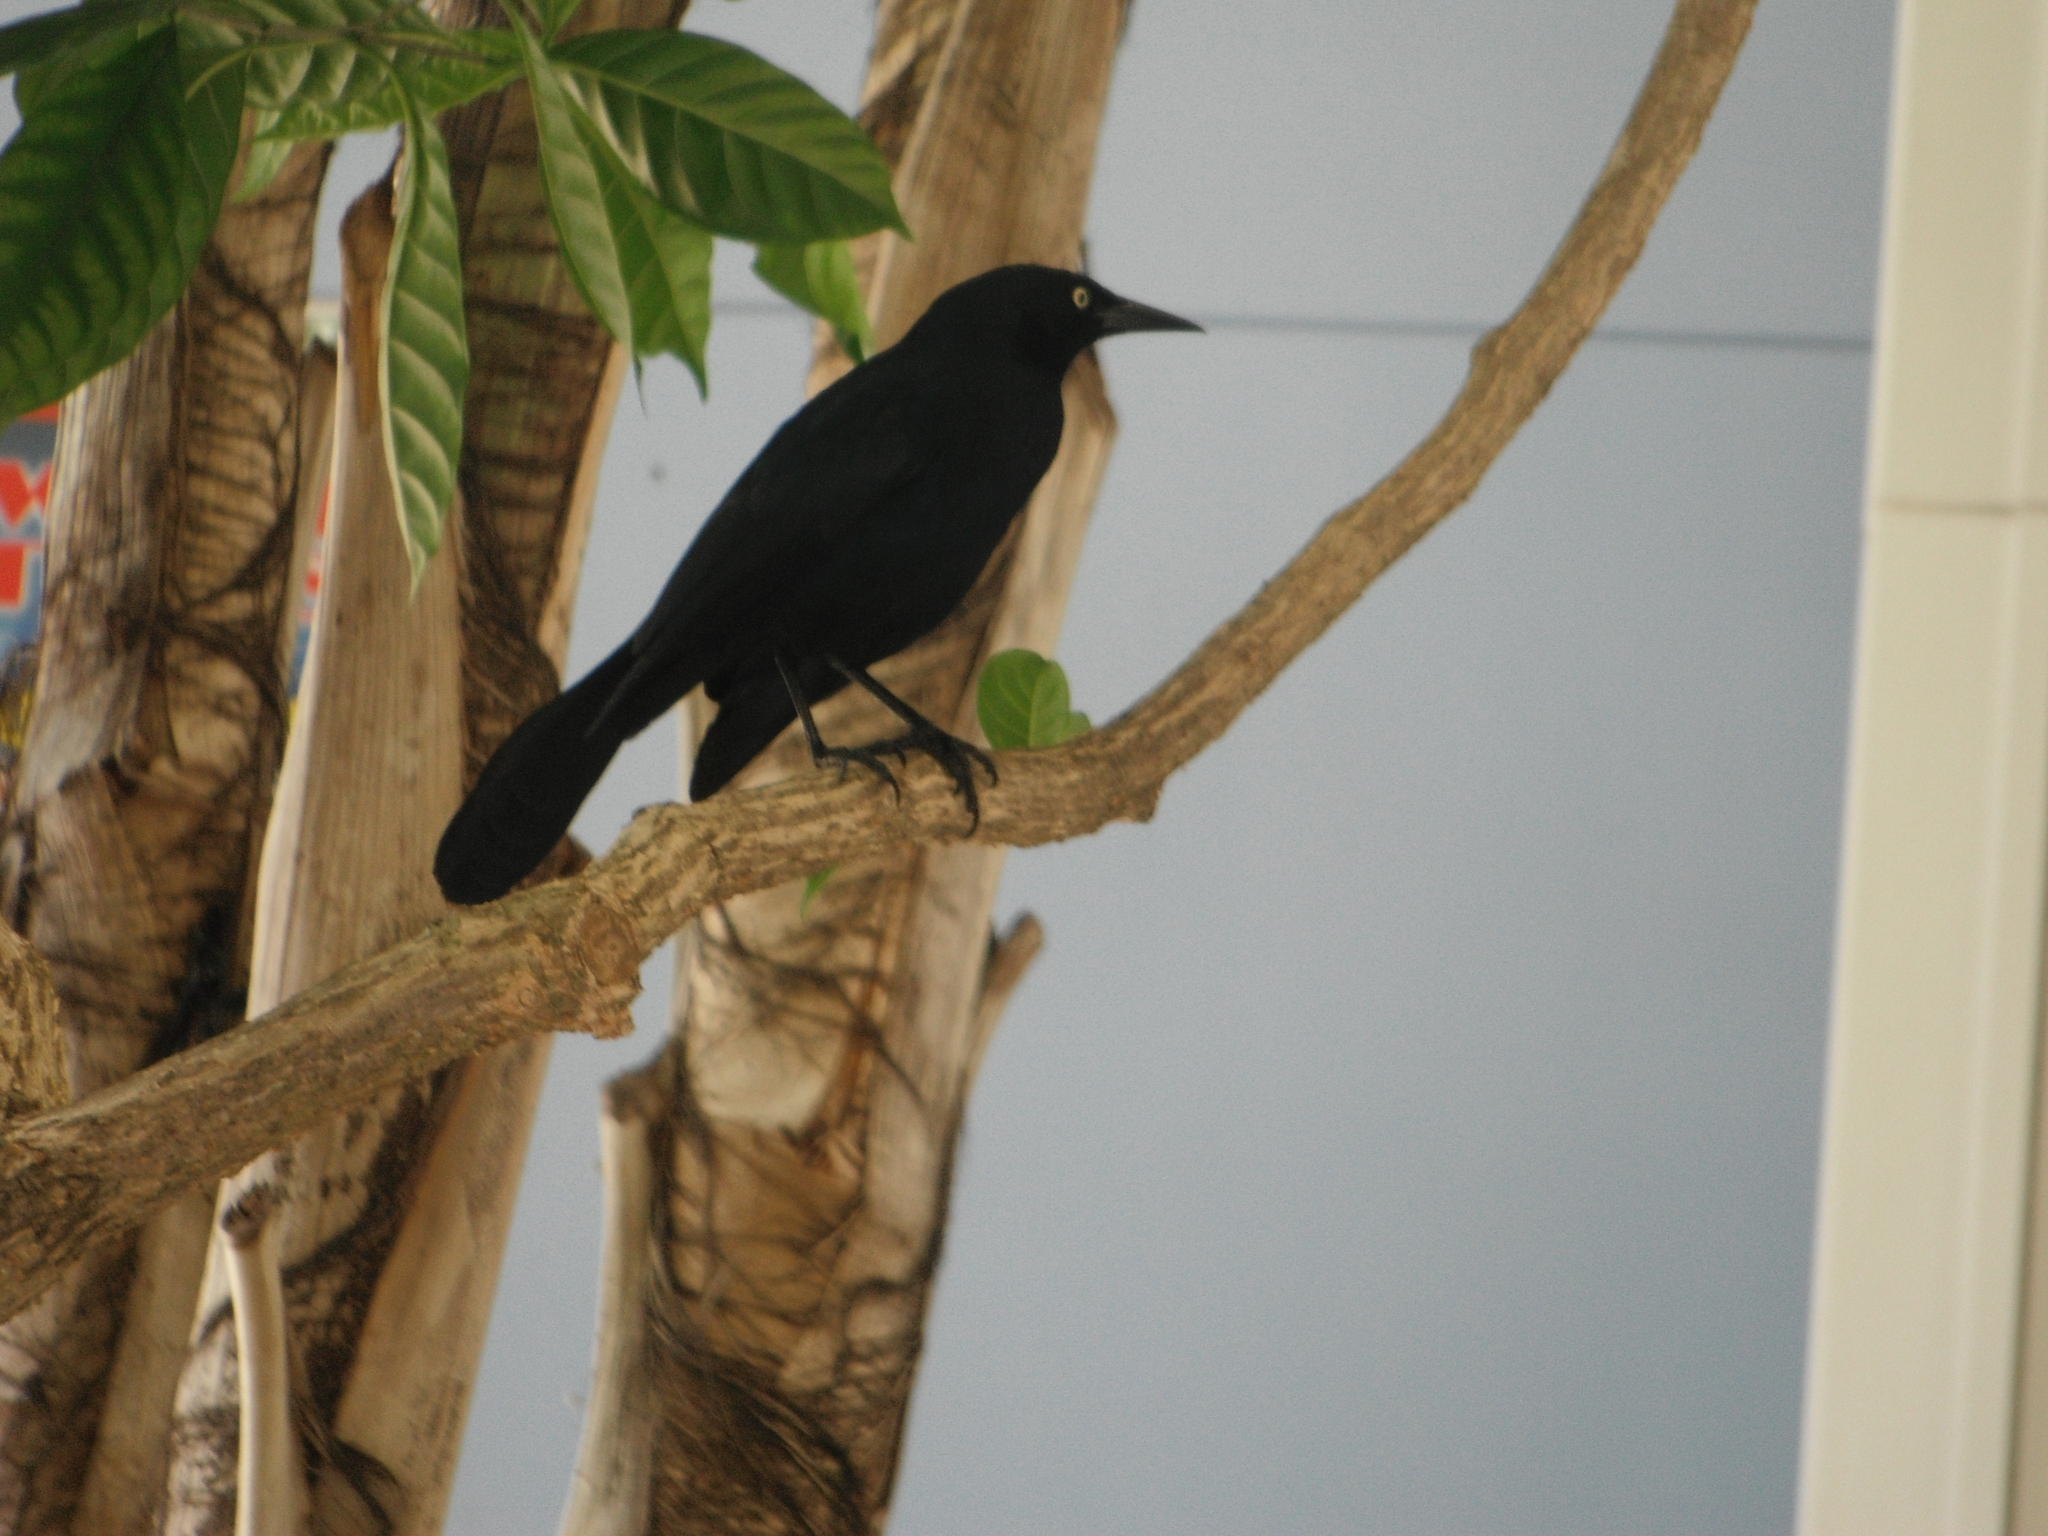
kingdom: Animalia
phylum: Chordata
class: Aves
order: Passeriformes
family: Icteridae
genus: Quiscalus
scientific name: Quiscalus niger
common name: Greater antillean grackle
